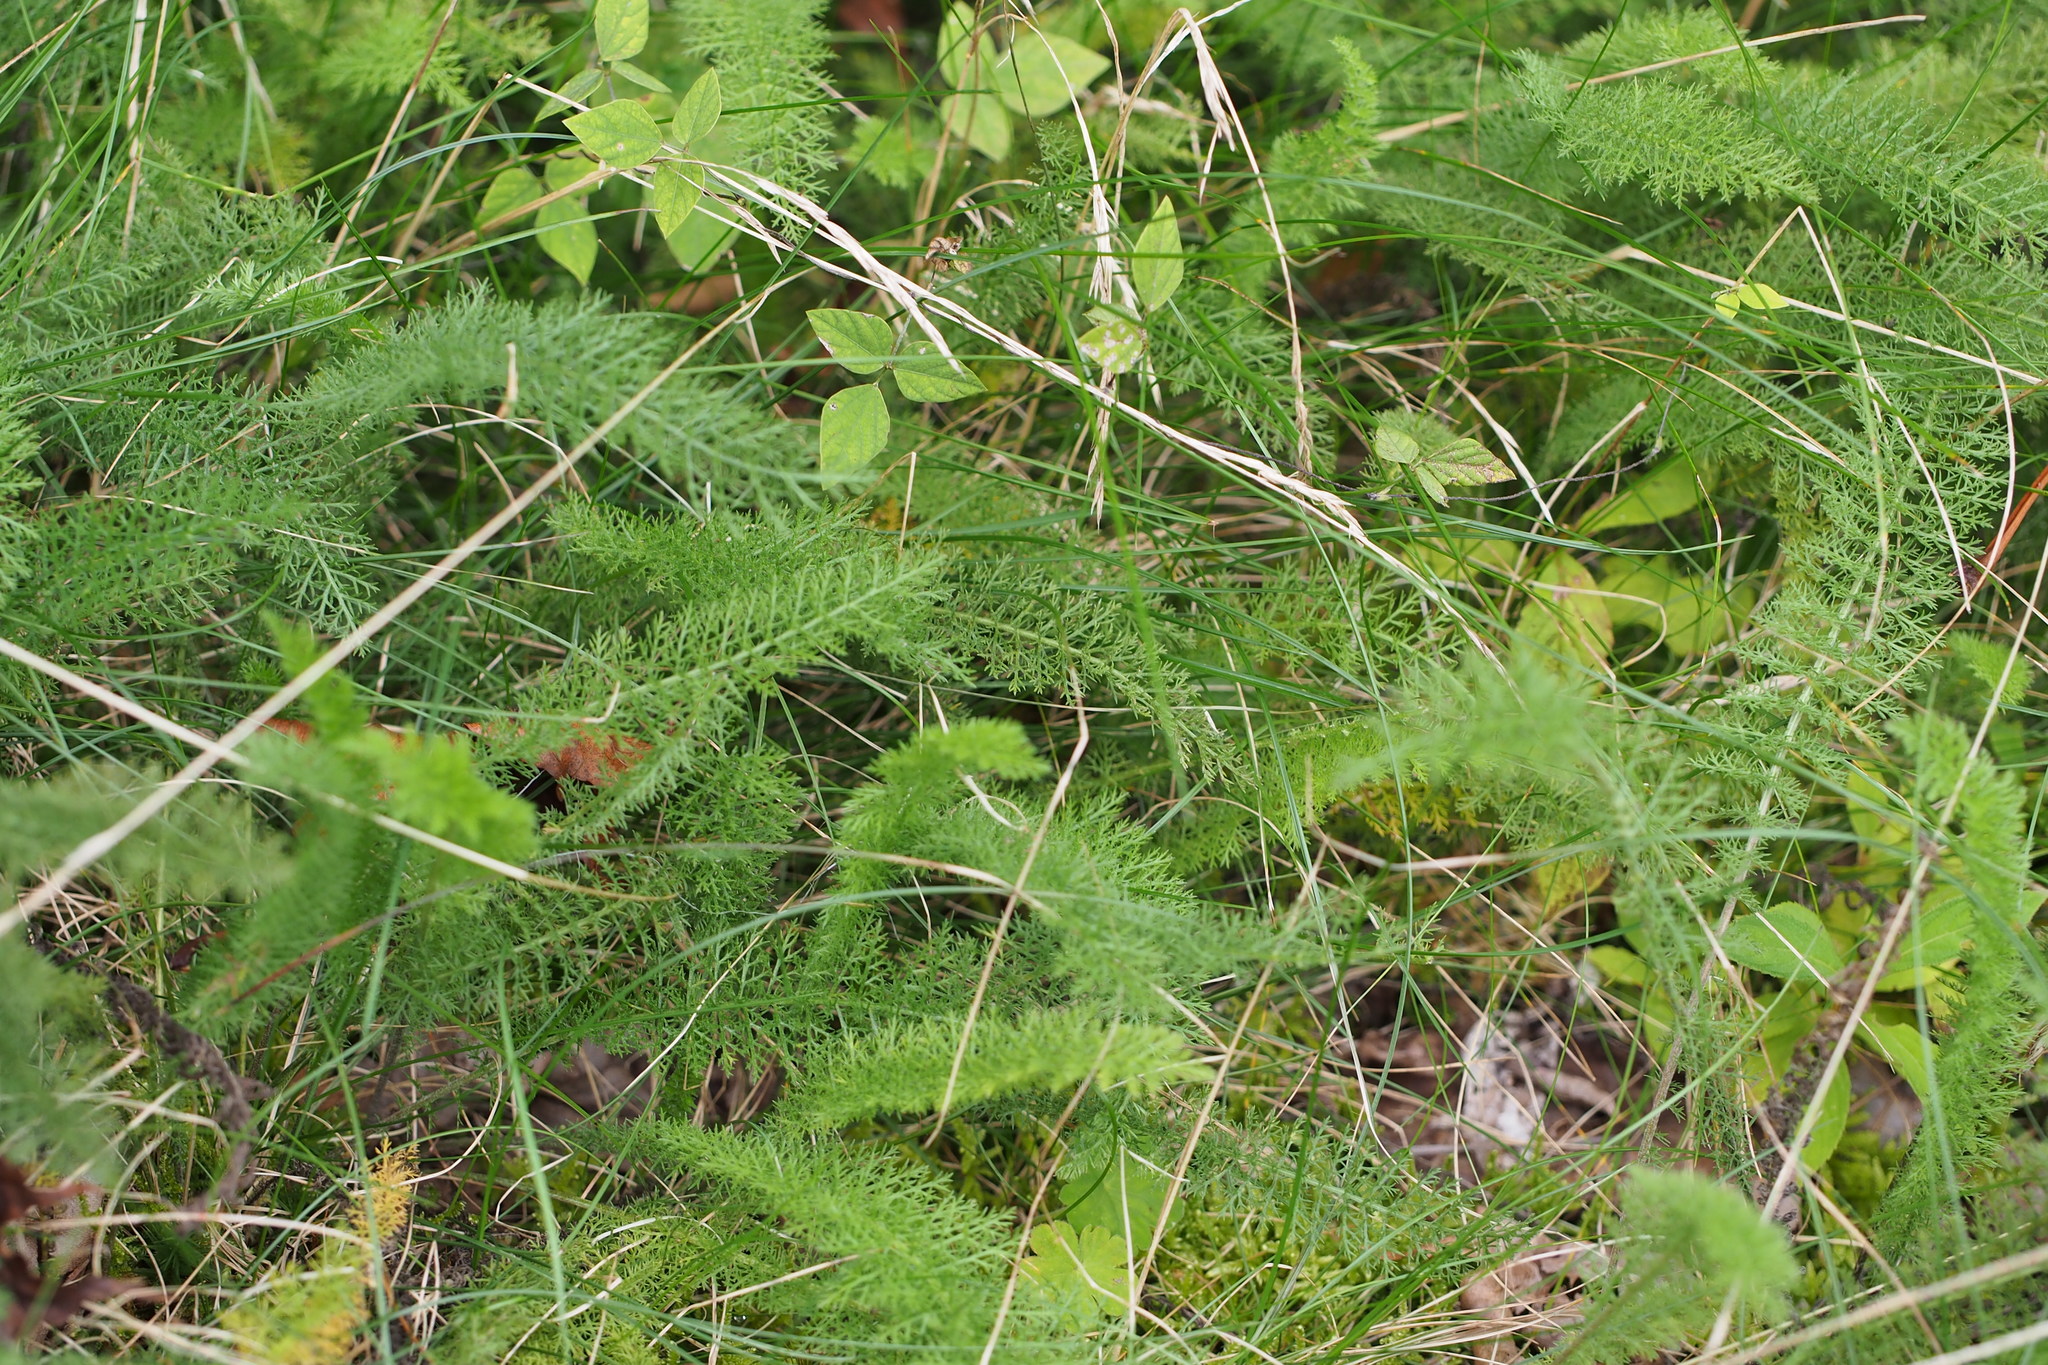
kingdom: Plantae
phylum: Tracheophyta
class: Magnoliopsida
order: Asterales
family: Asteraceae
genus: Achillea
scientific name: Achillea millefolium
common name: Yarrow
